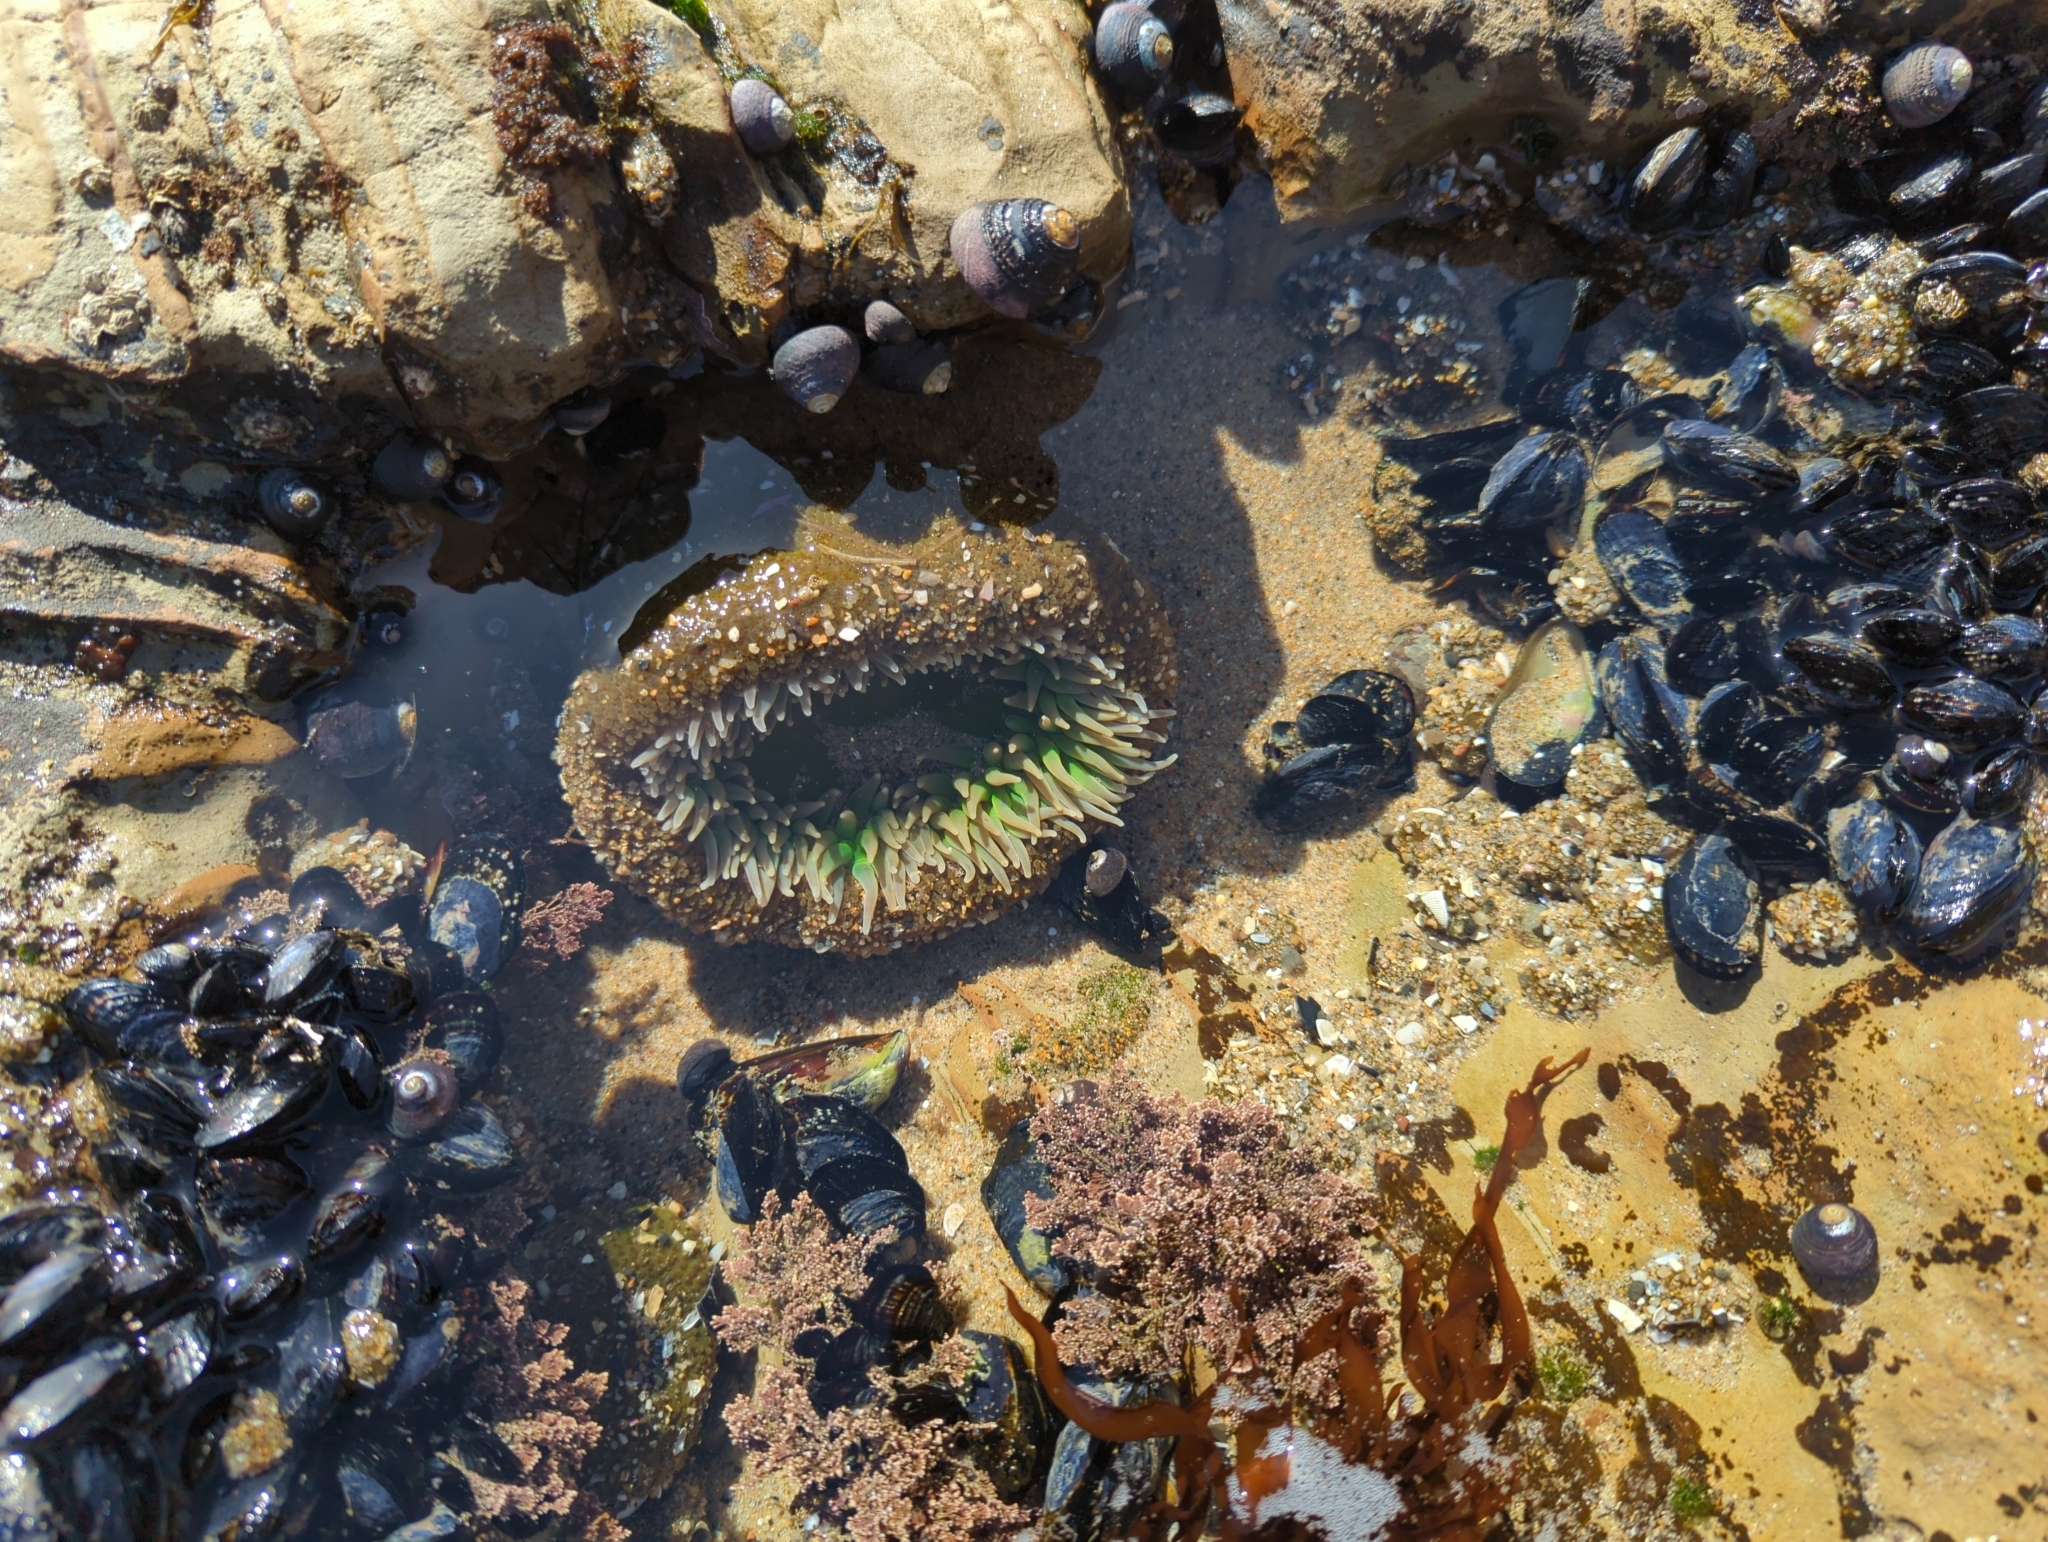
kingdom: Animalia
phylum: Cnidaria
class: Anthozoa
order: Actiniaria
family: Actiniidae
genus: Anthopleura
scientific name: Anthopleura xanthogrammica
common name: Giant green anemone
